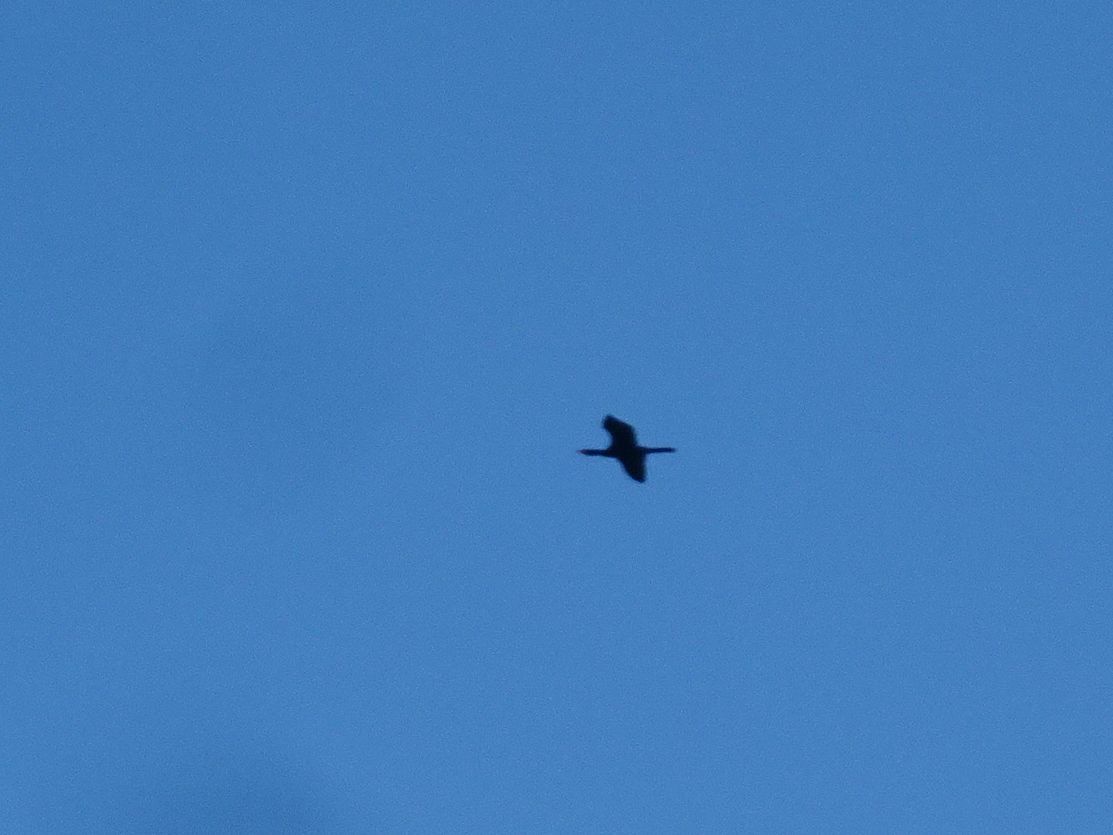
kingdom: Animalia
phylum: Chordata
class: Aves
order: Suliformes
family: Phalacrocoracidae
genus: Microcarbo
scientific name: Microcarbo africanus
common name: Long-tailed cormorant
